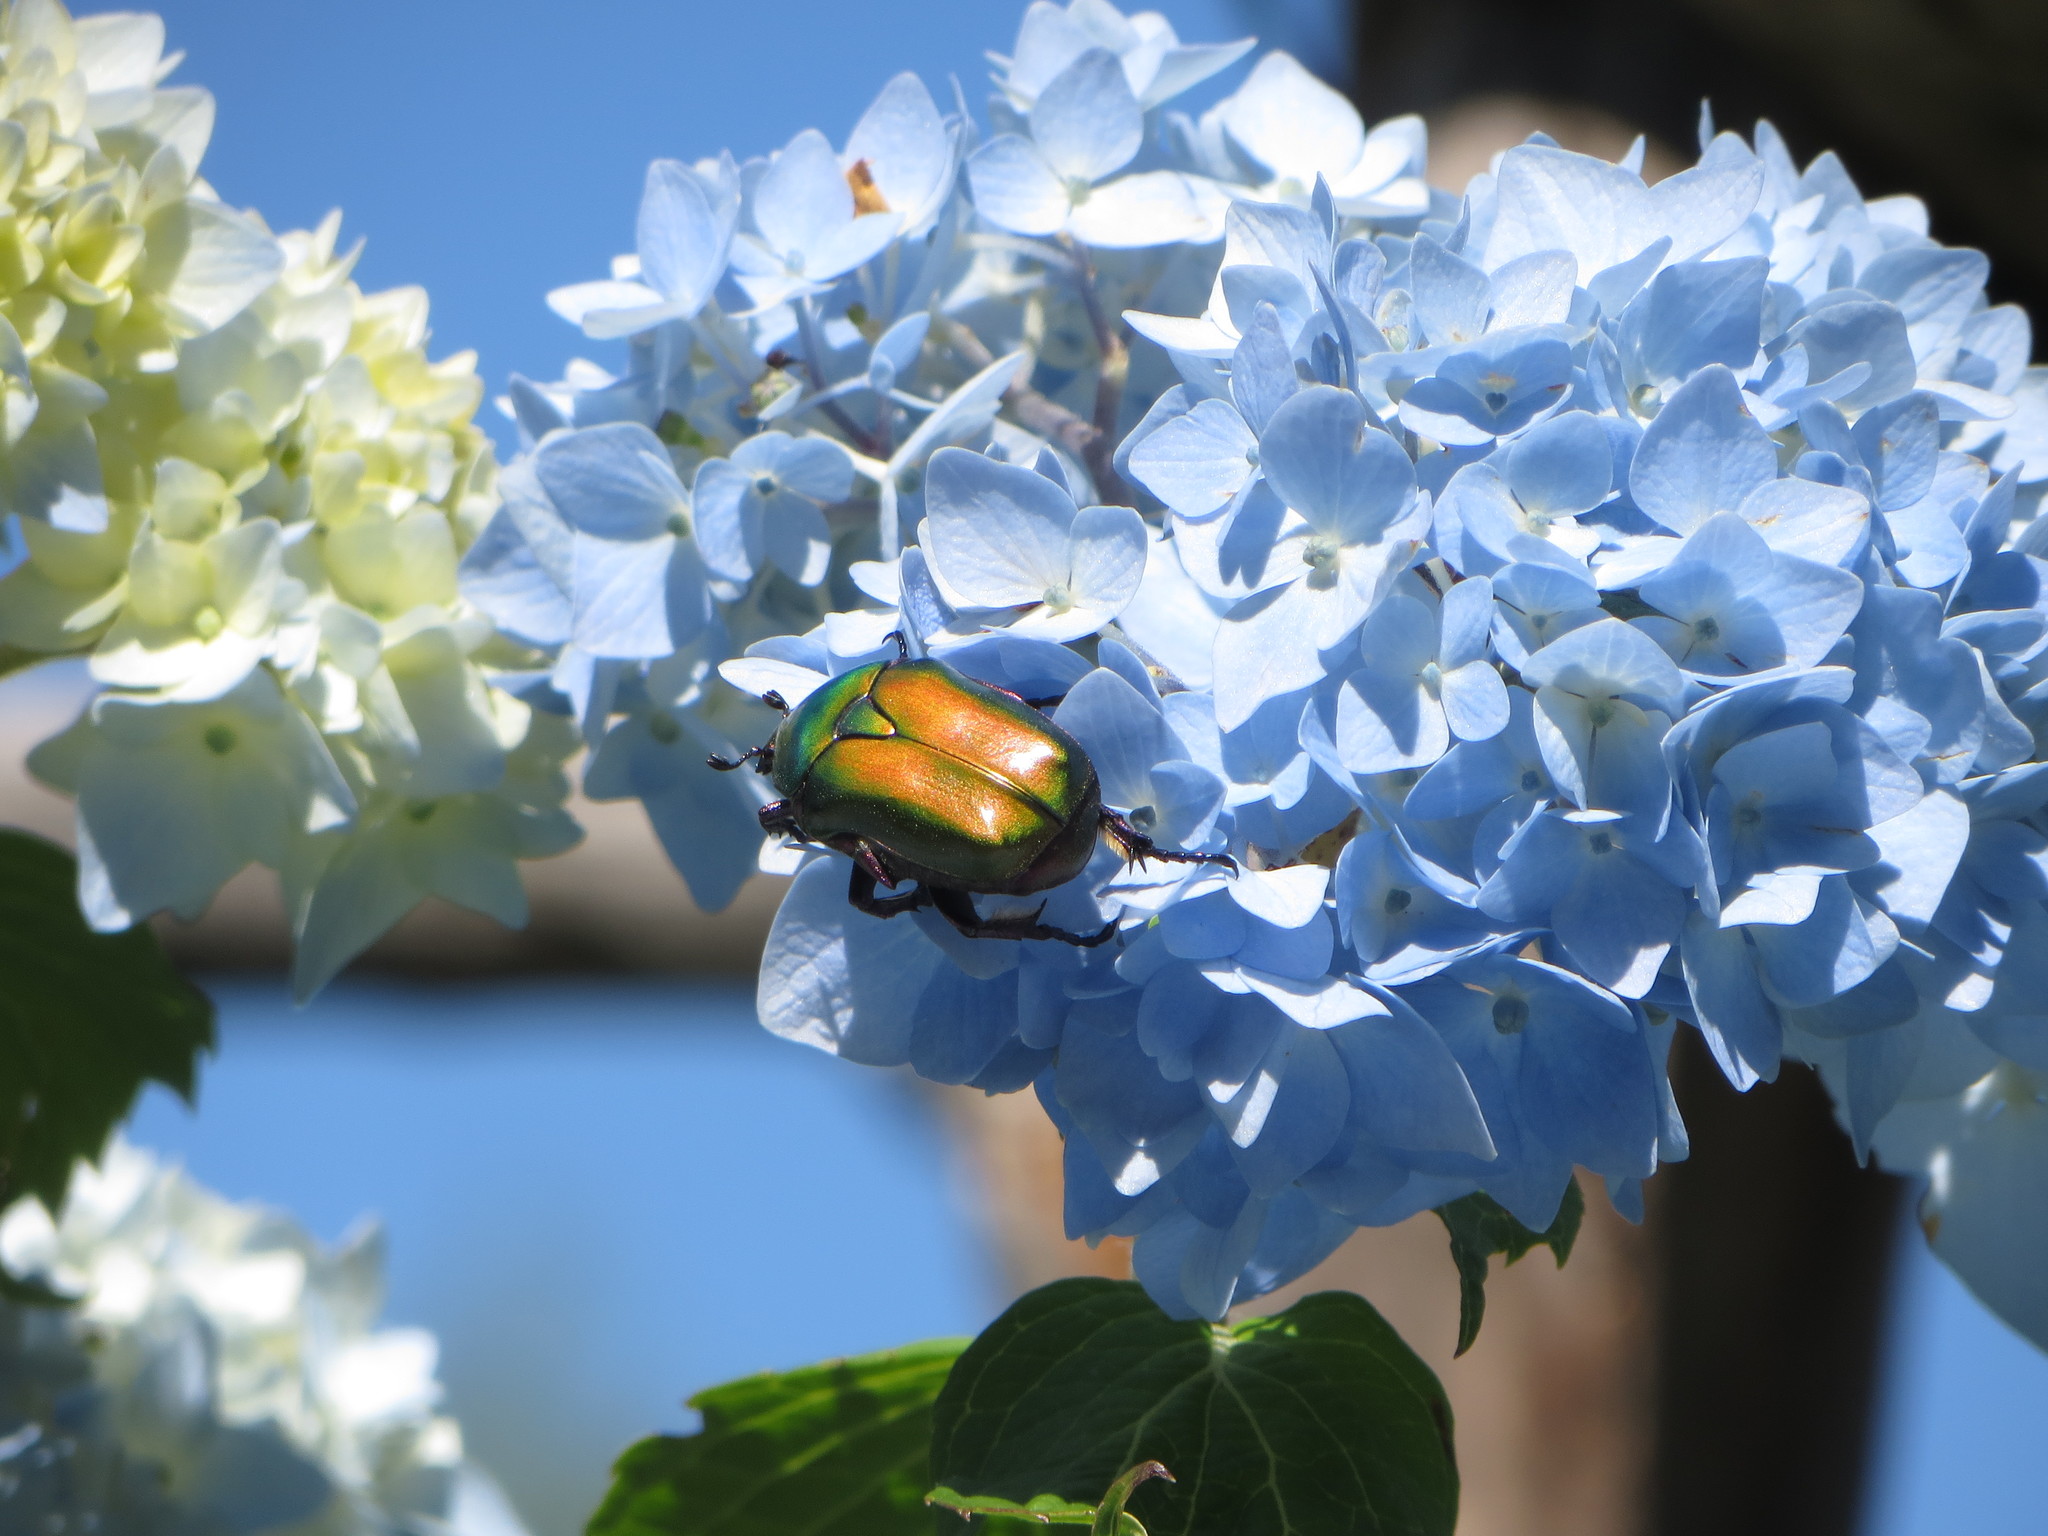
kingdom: Animalia
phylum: Arthropoda
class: Insecta
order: Coleoptera
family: Scarabaeidae
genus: Protaetia
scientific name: Protaetia cuprea
